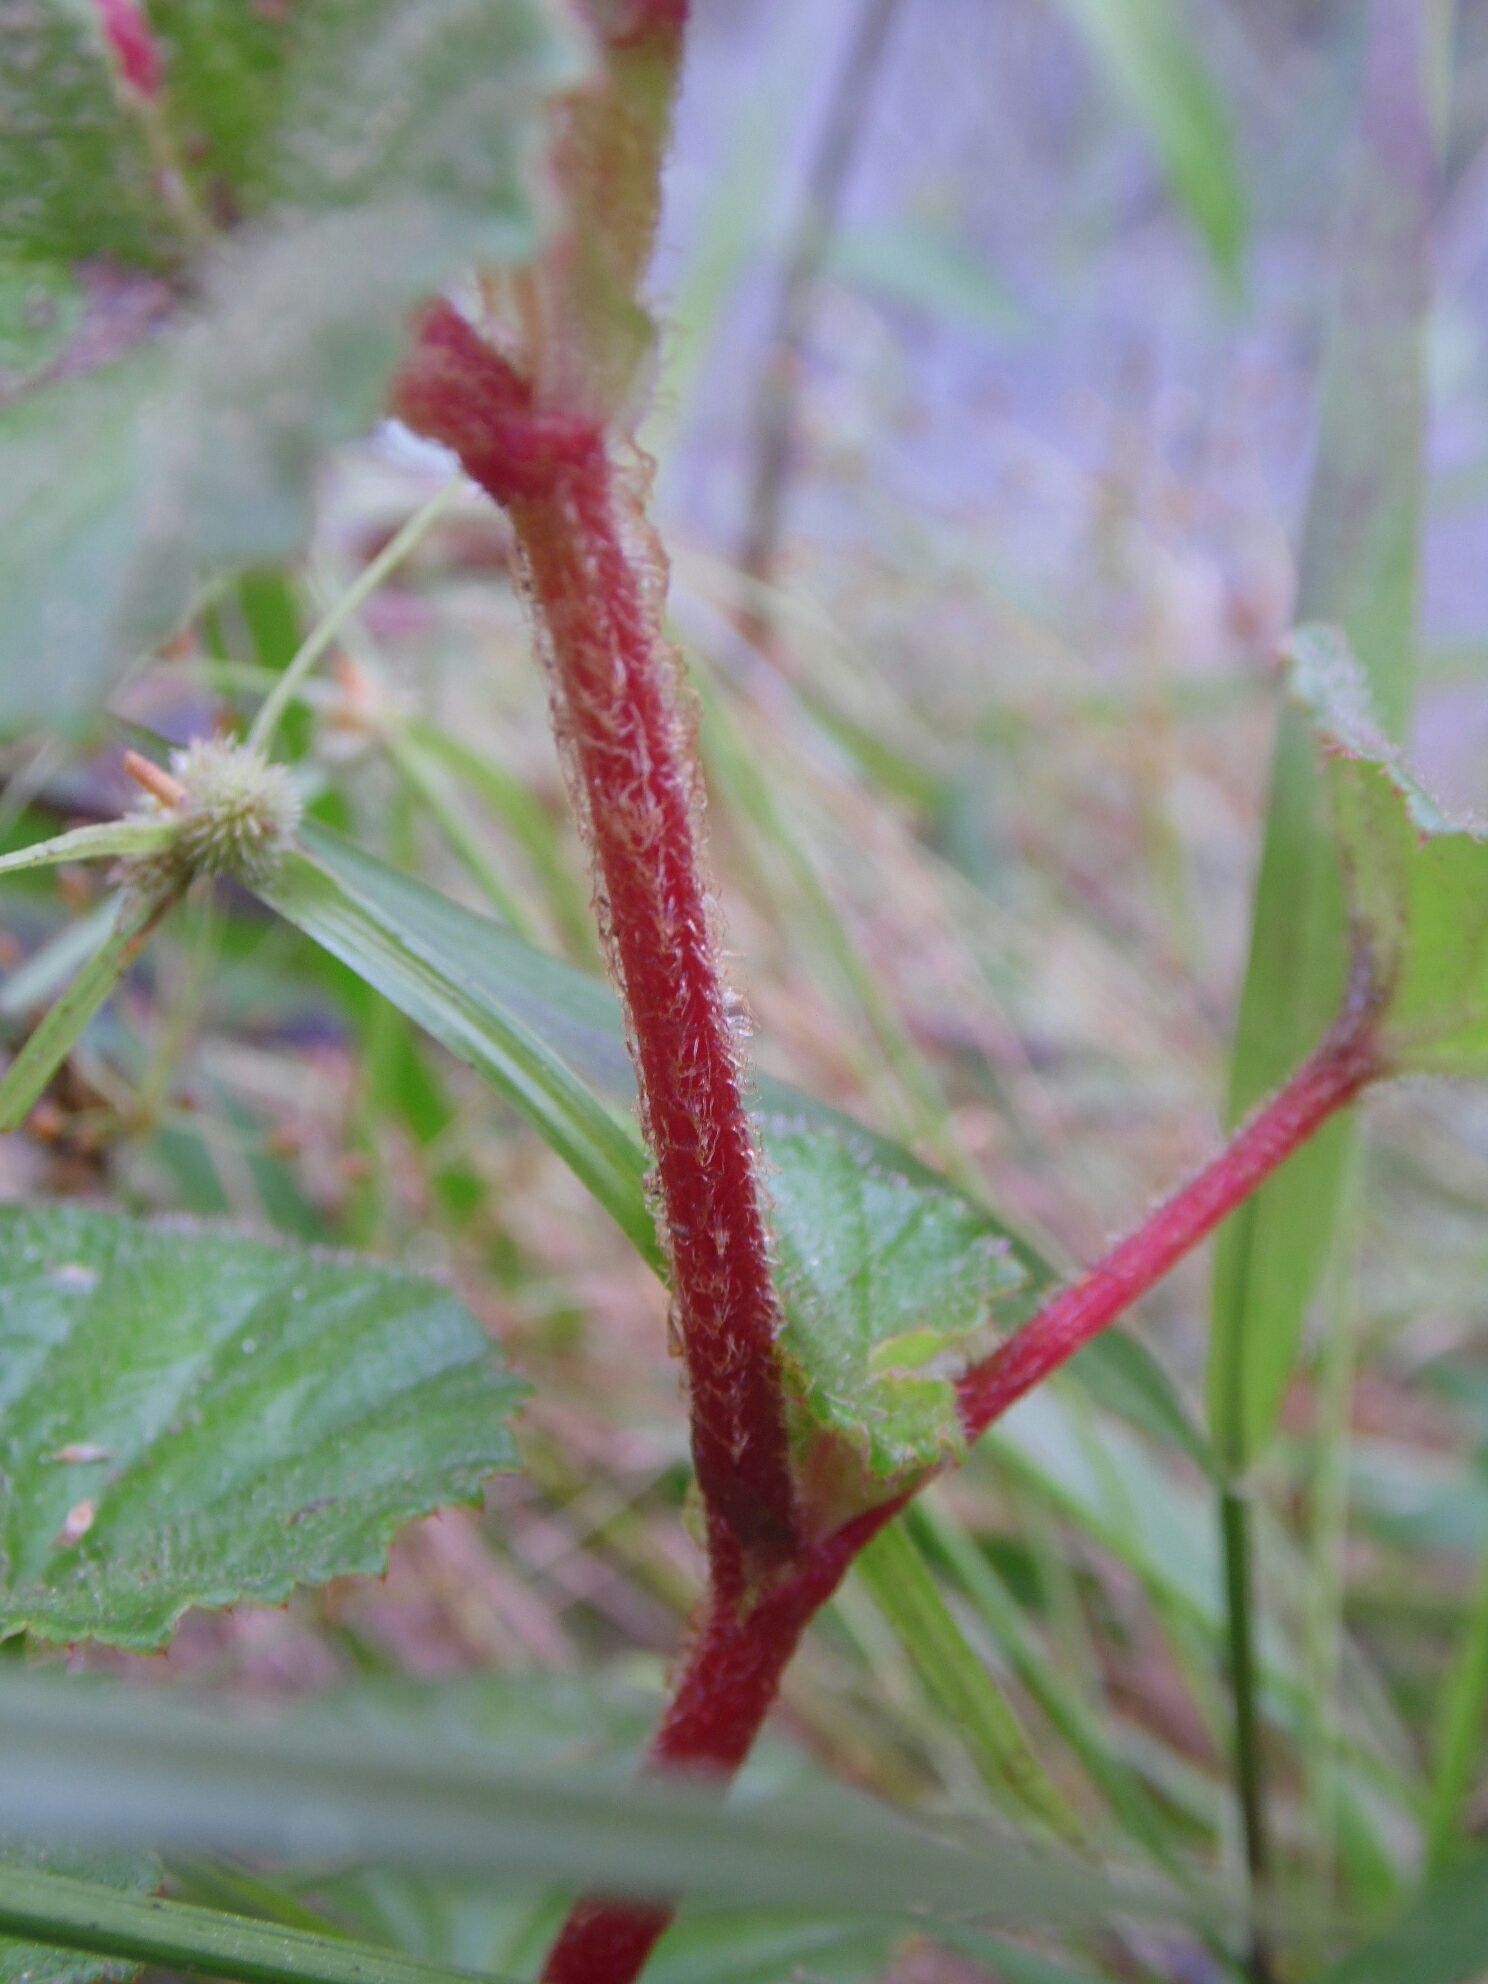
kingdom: Plantae
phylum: Tracheophyta
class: Magnoliopsida
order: Cucurbitales
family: Begoniaceae
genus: Begonia
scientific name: Begonia fischeri
